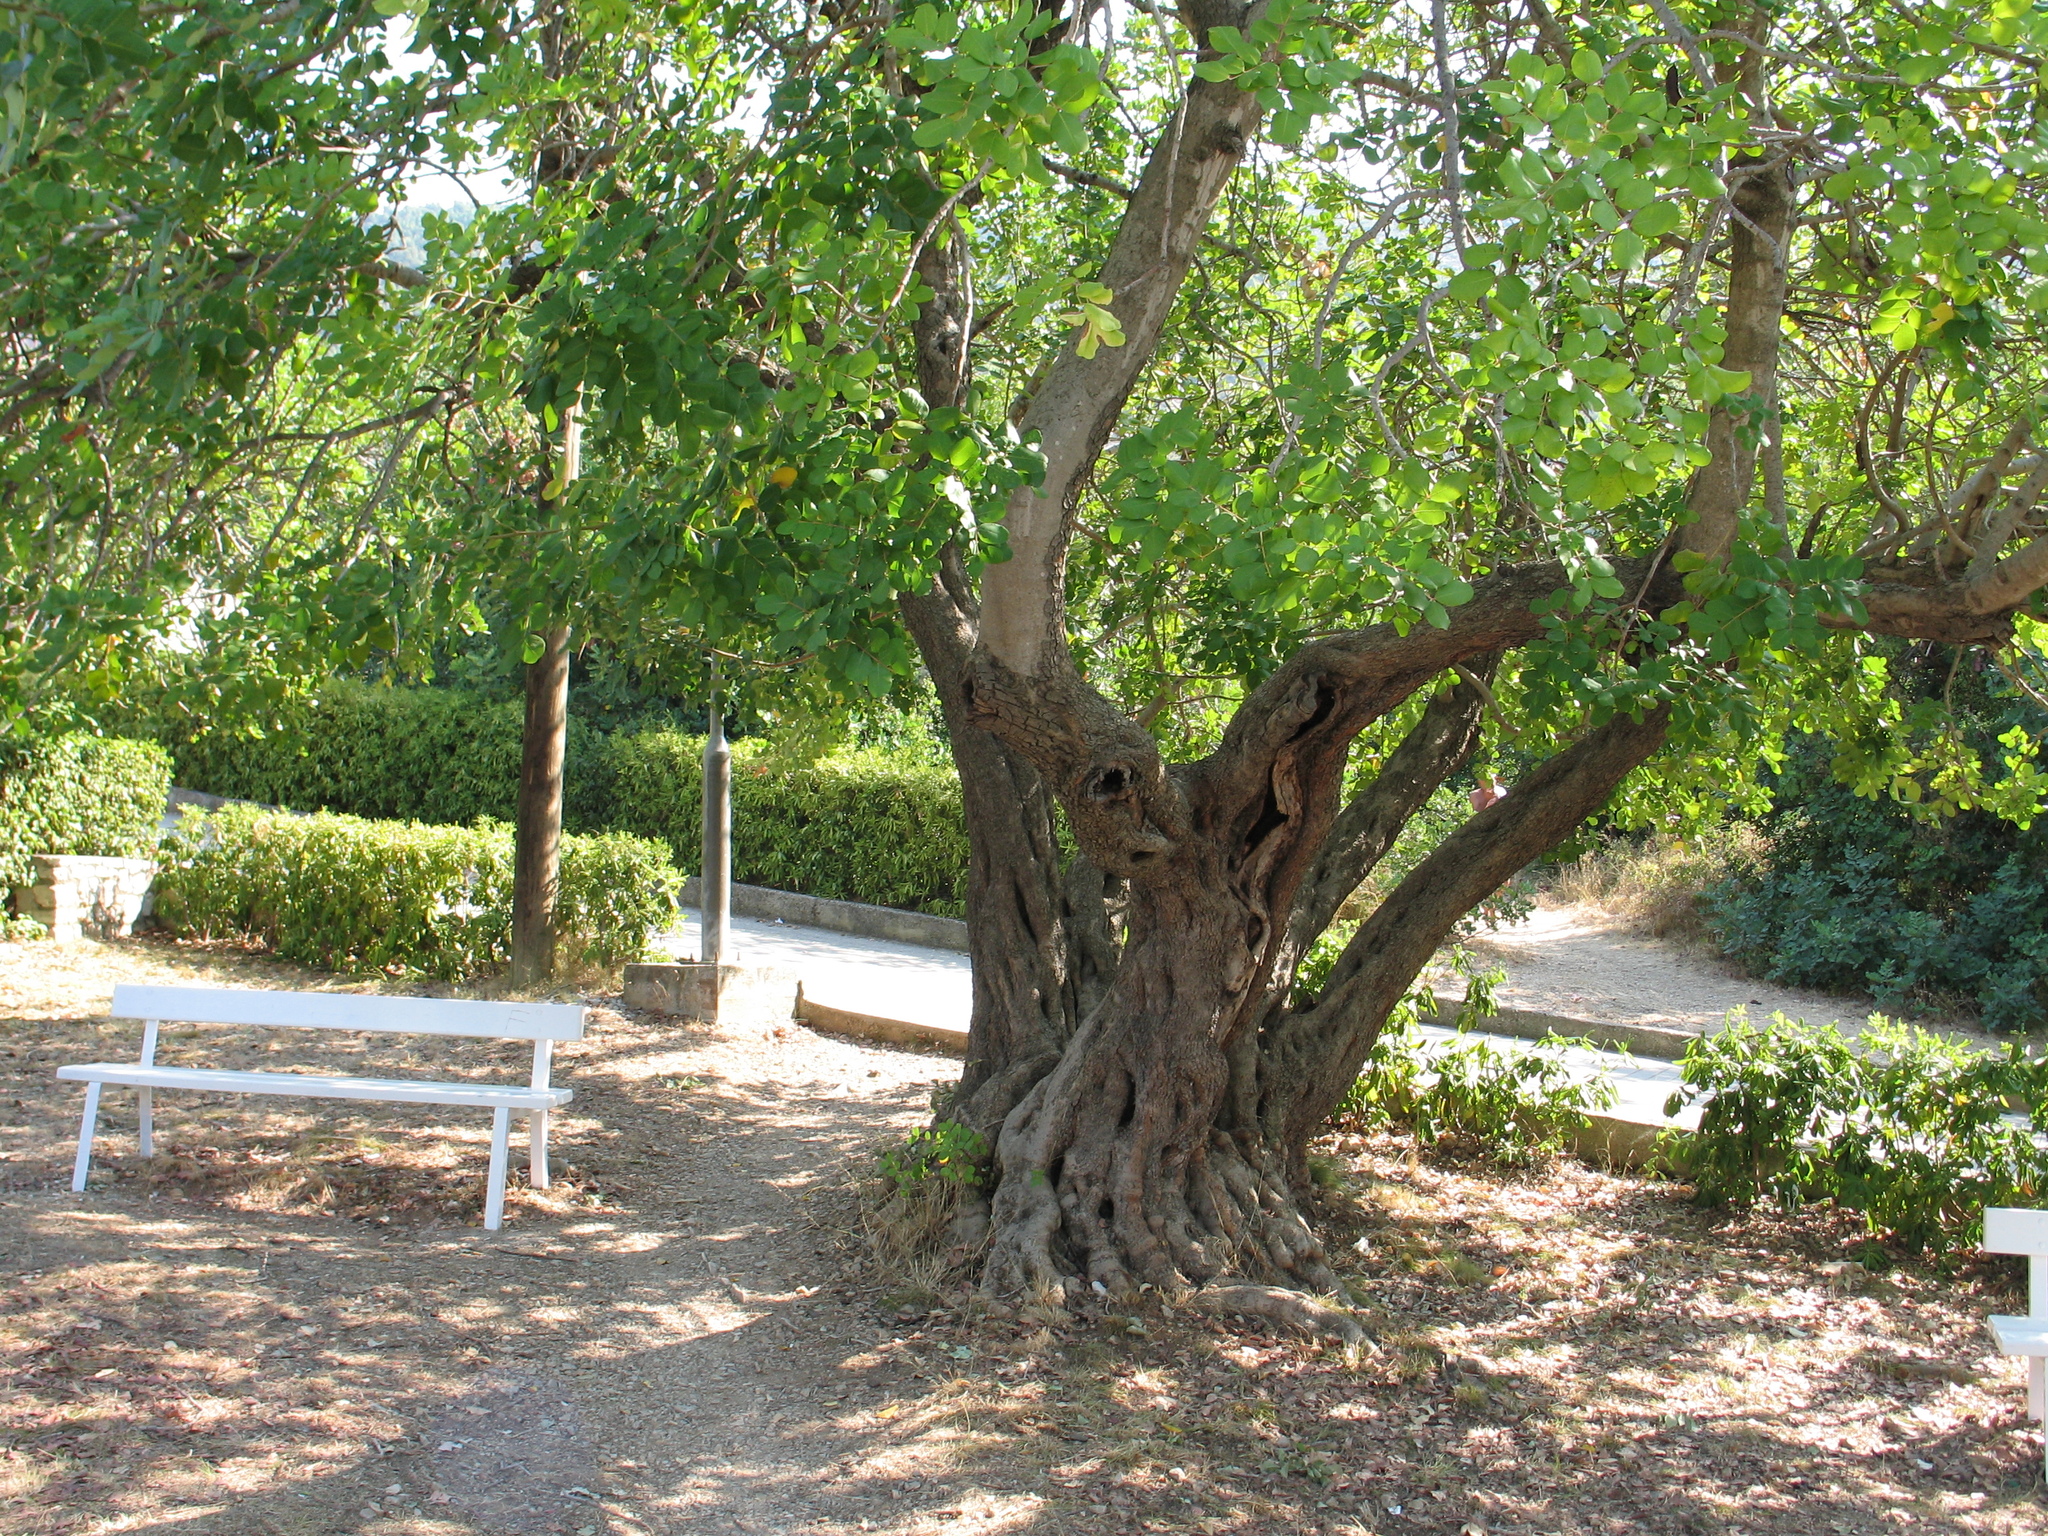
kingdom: Plantae
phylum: Tracheophyta
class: Magnoliopsida
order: Fabales
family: Fabaceae
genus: Ceratonia
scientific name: Ceratonia siliqua
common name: Carob
